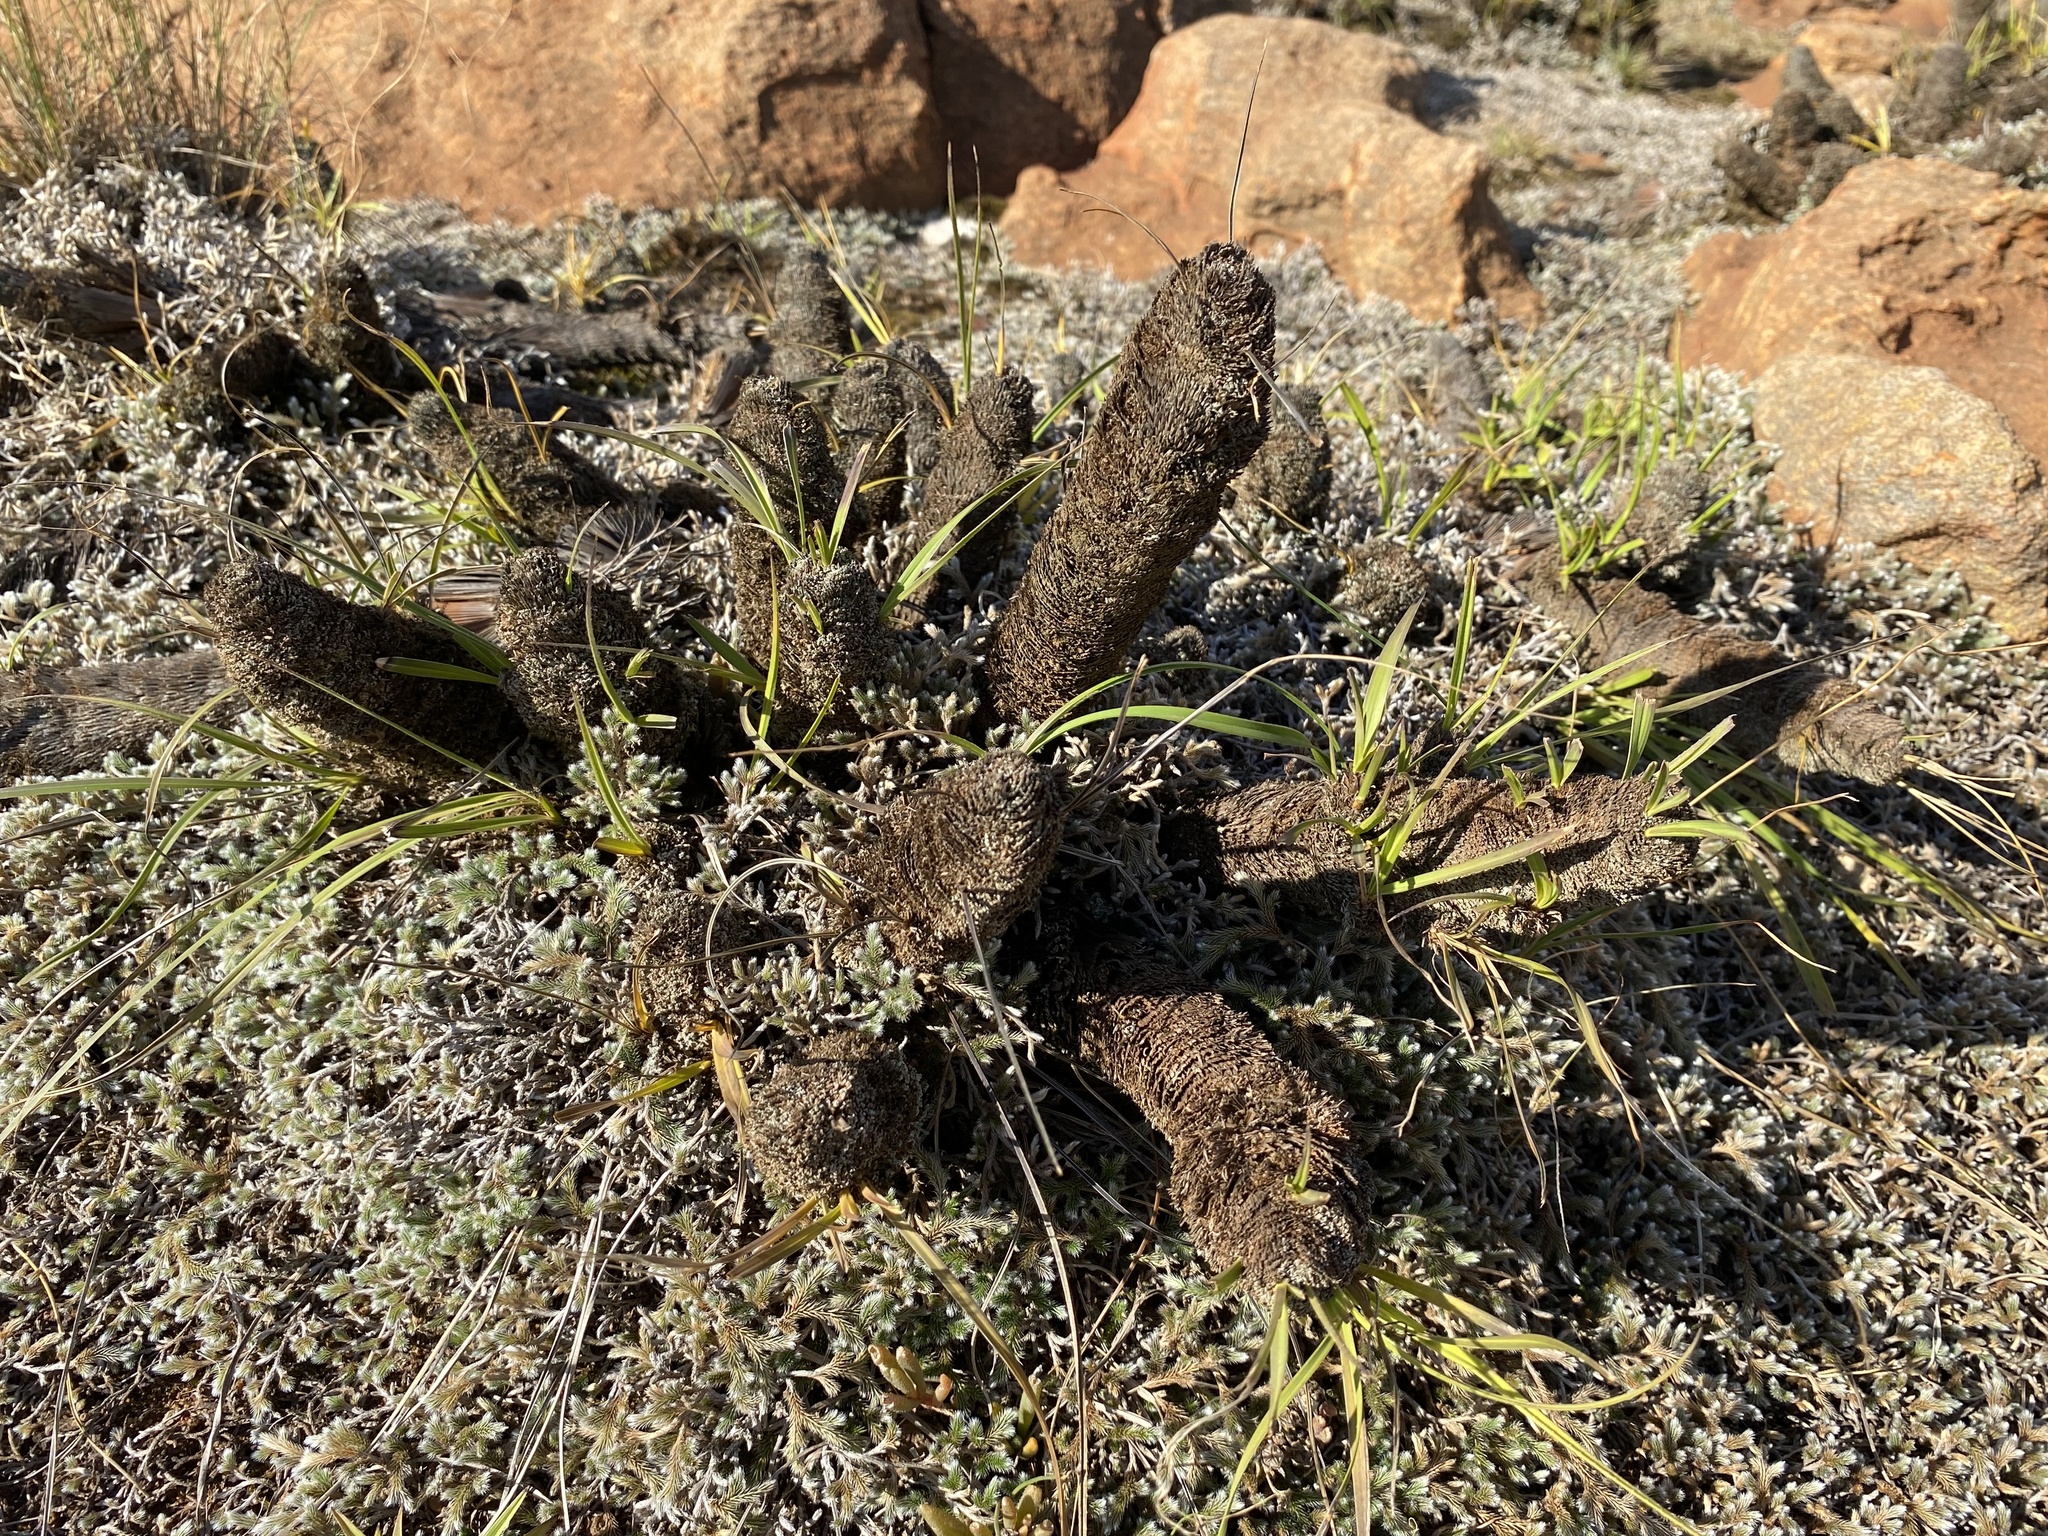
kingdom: Plantae
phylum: Tracheophyta
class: Liliopsida
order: Pandanales
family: Velloziaceae
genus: Xerophyta
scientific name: Xerophyta retinervis
